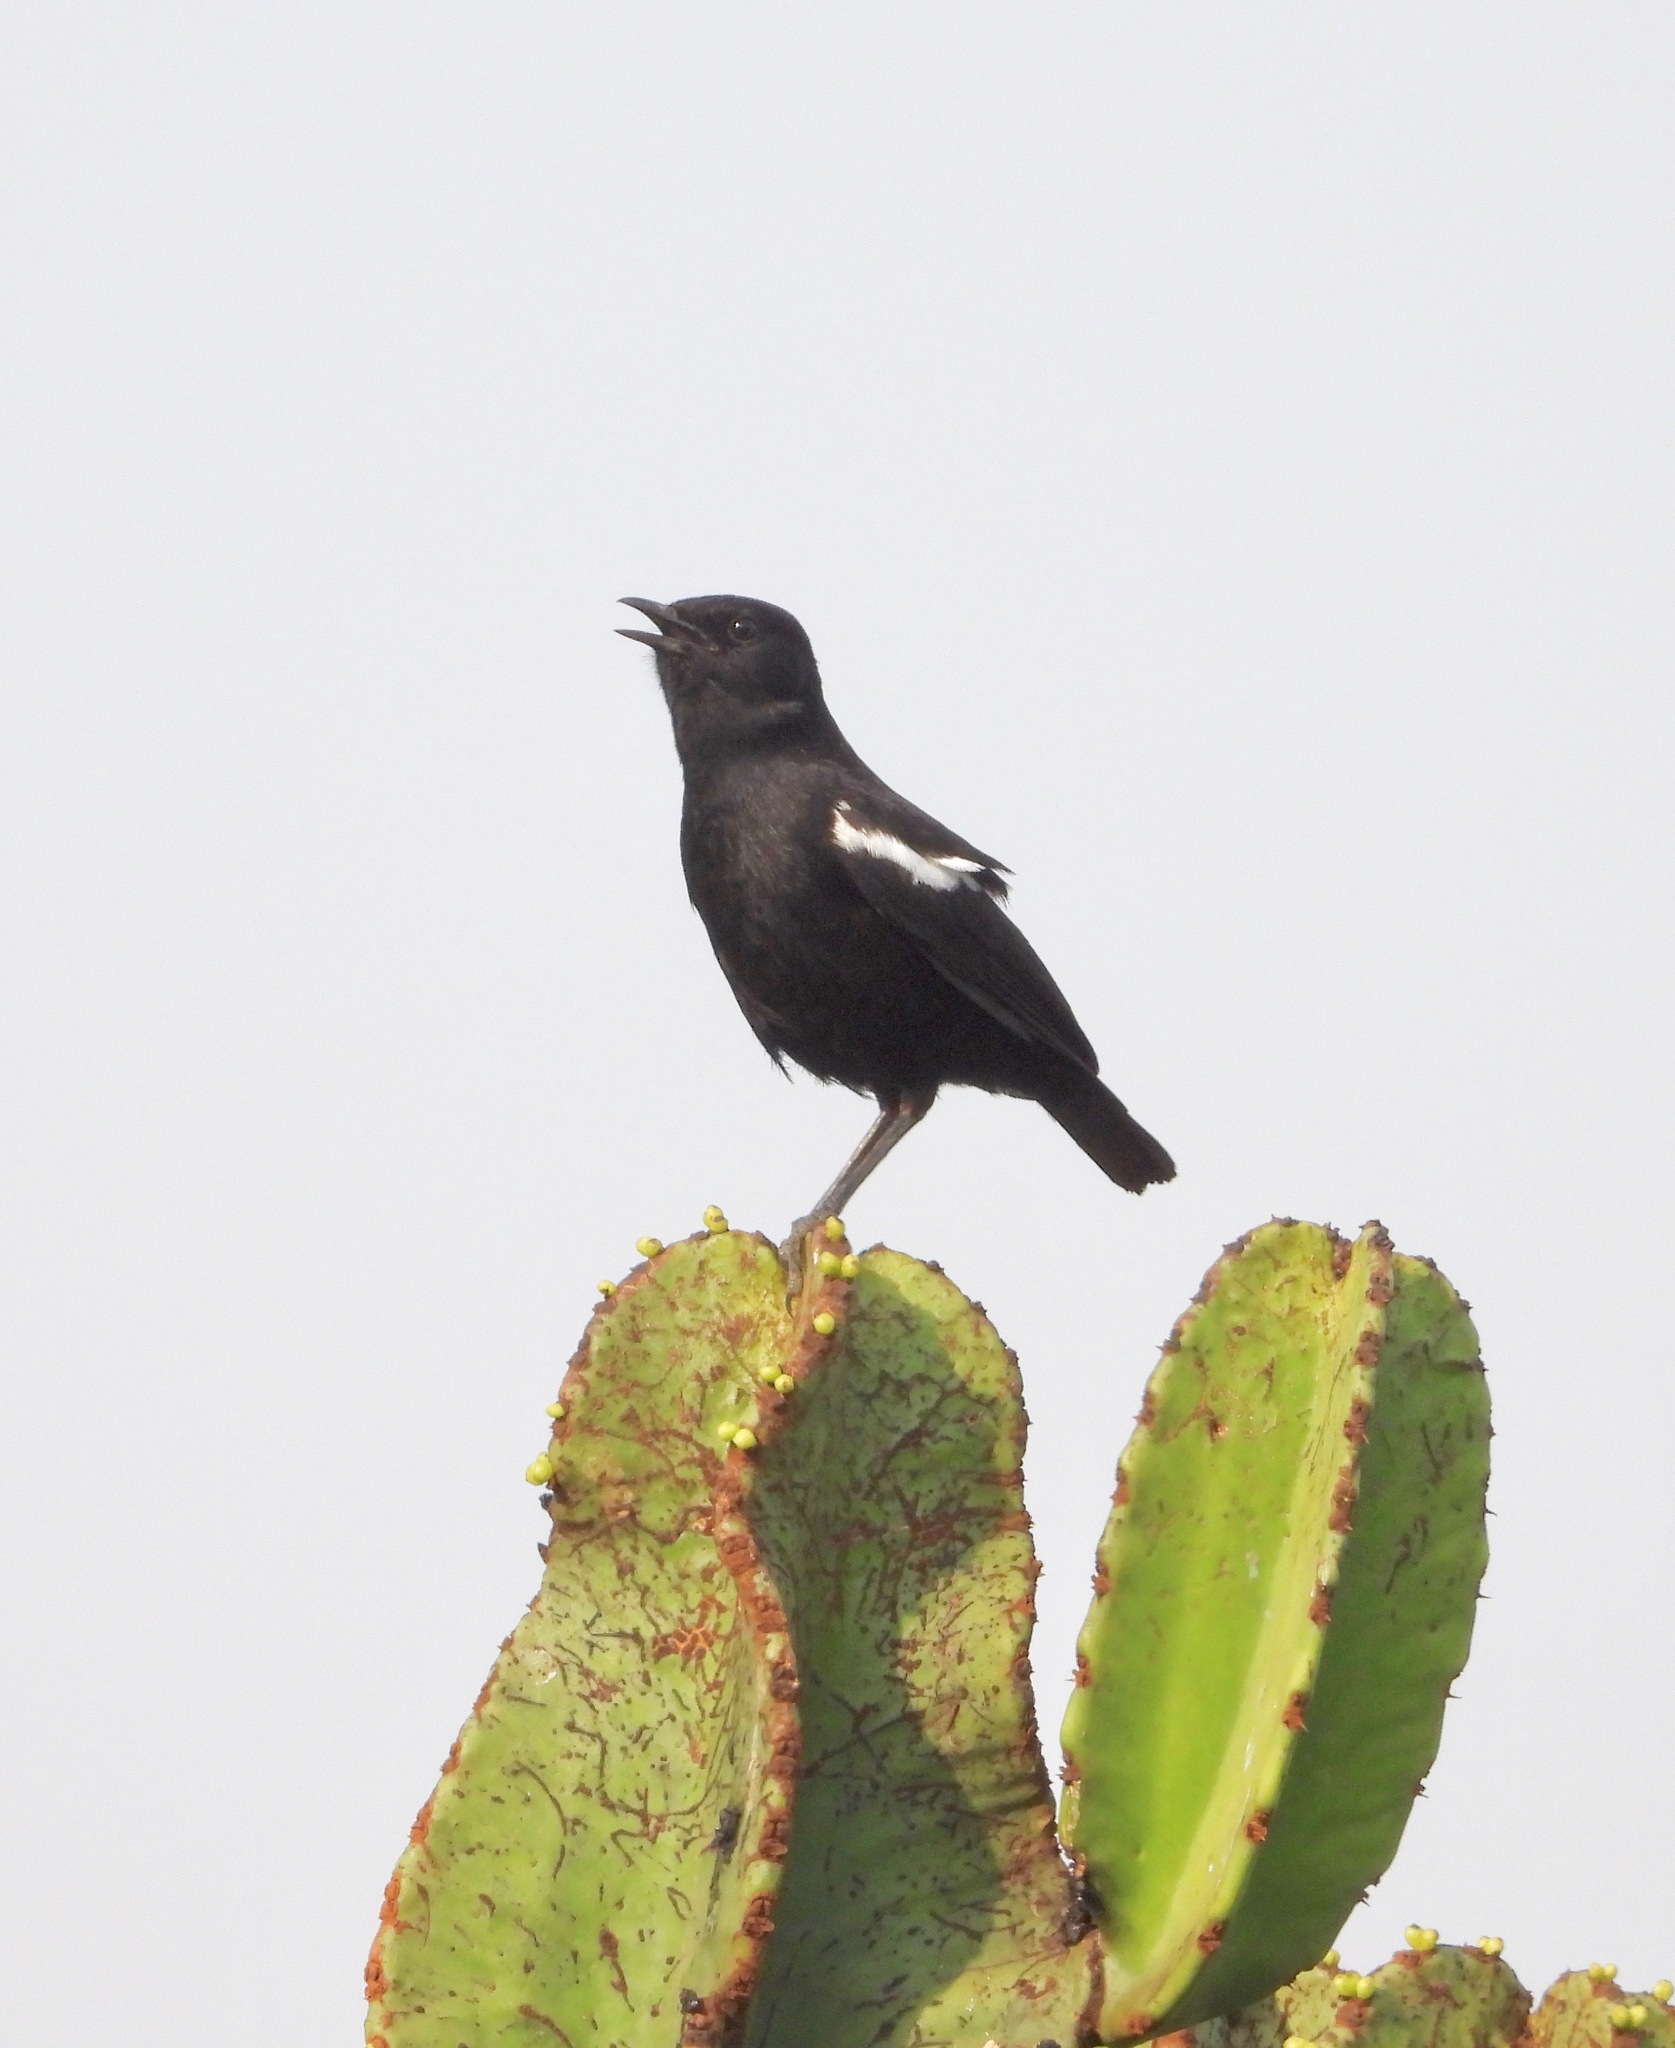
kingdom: Animalia
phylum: Chordata
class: Aves
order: Passeriformes
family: Muscicapidae
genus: Myrmecocichla
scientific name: Myrmecocichla nigra
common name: Sooty chat
